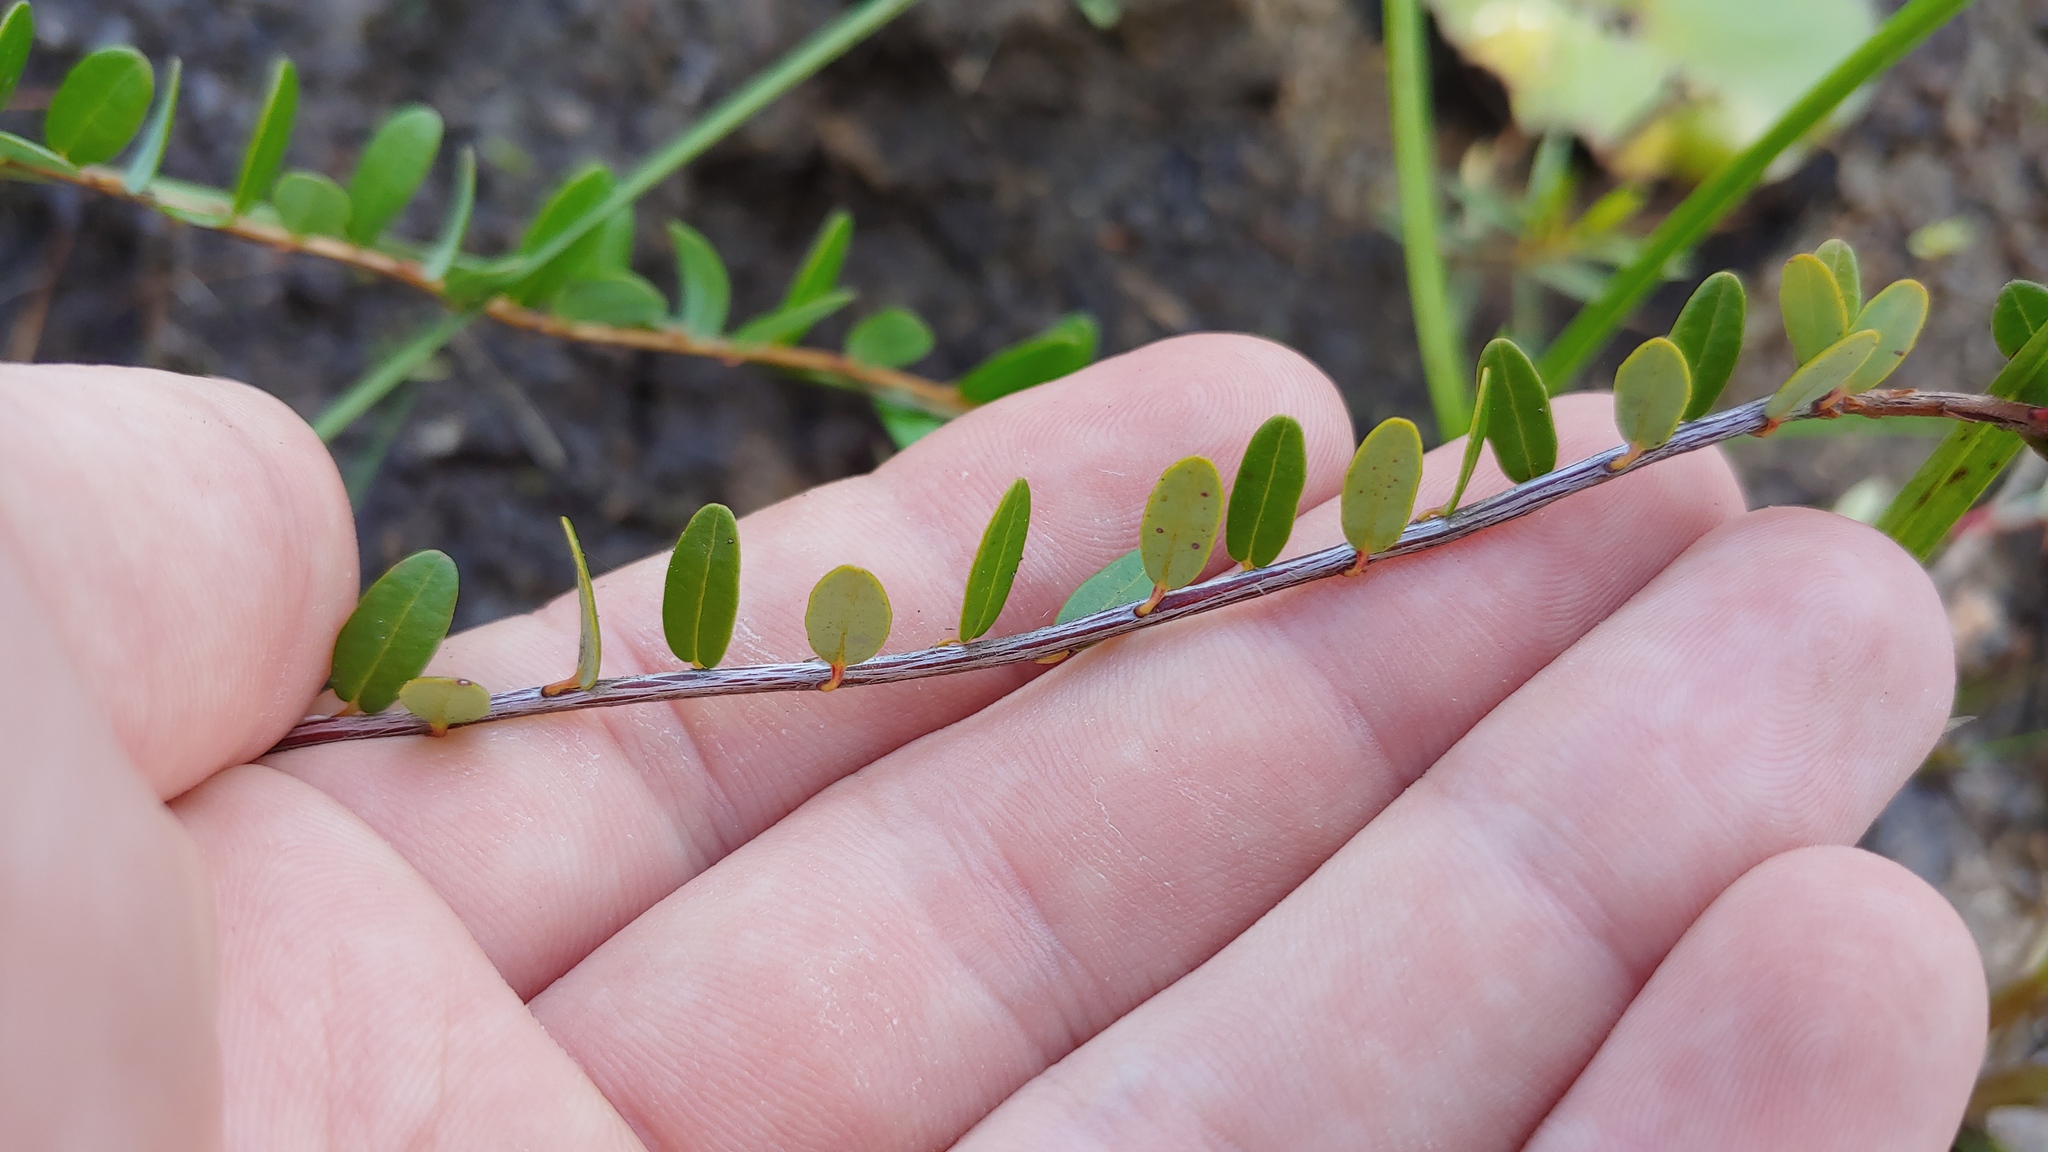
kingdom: Plantae
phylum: Tracheophyta
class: Magnoliopsida
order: Ericales
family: Ericaceae
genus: Vaccinium
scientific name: Vaccinium macrocarpon
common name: American cranberry
